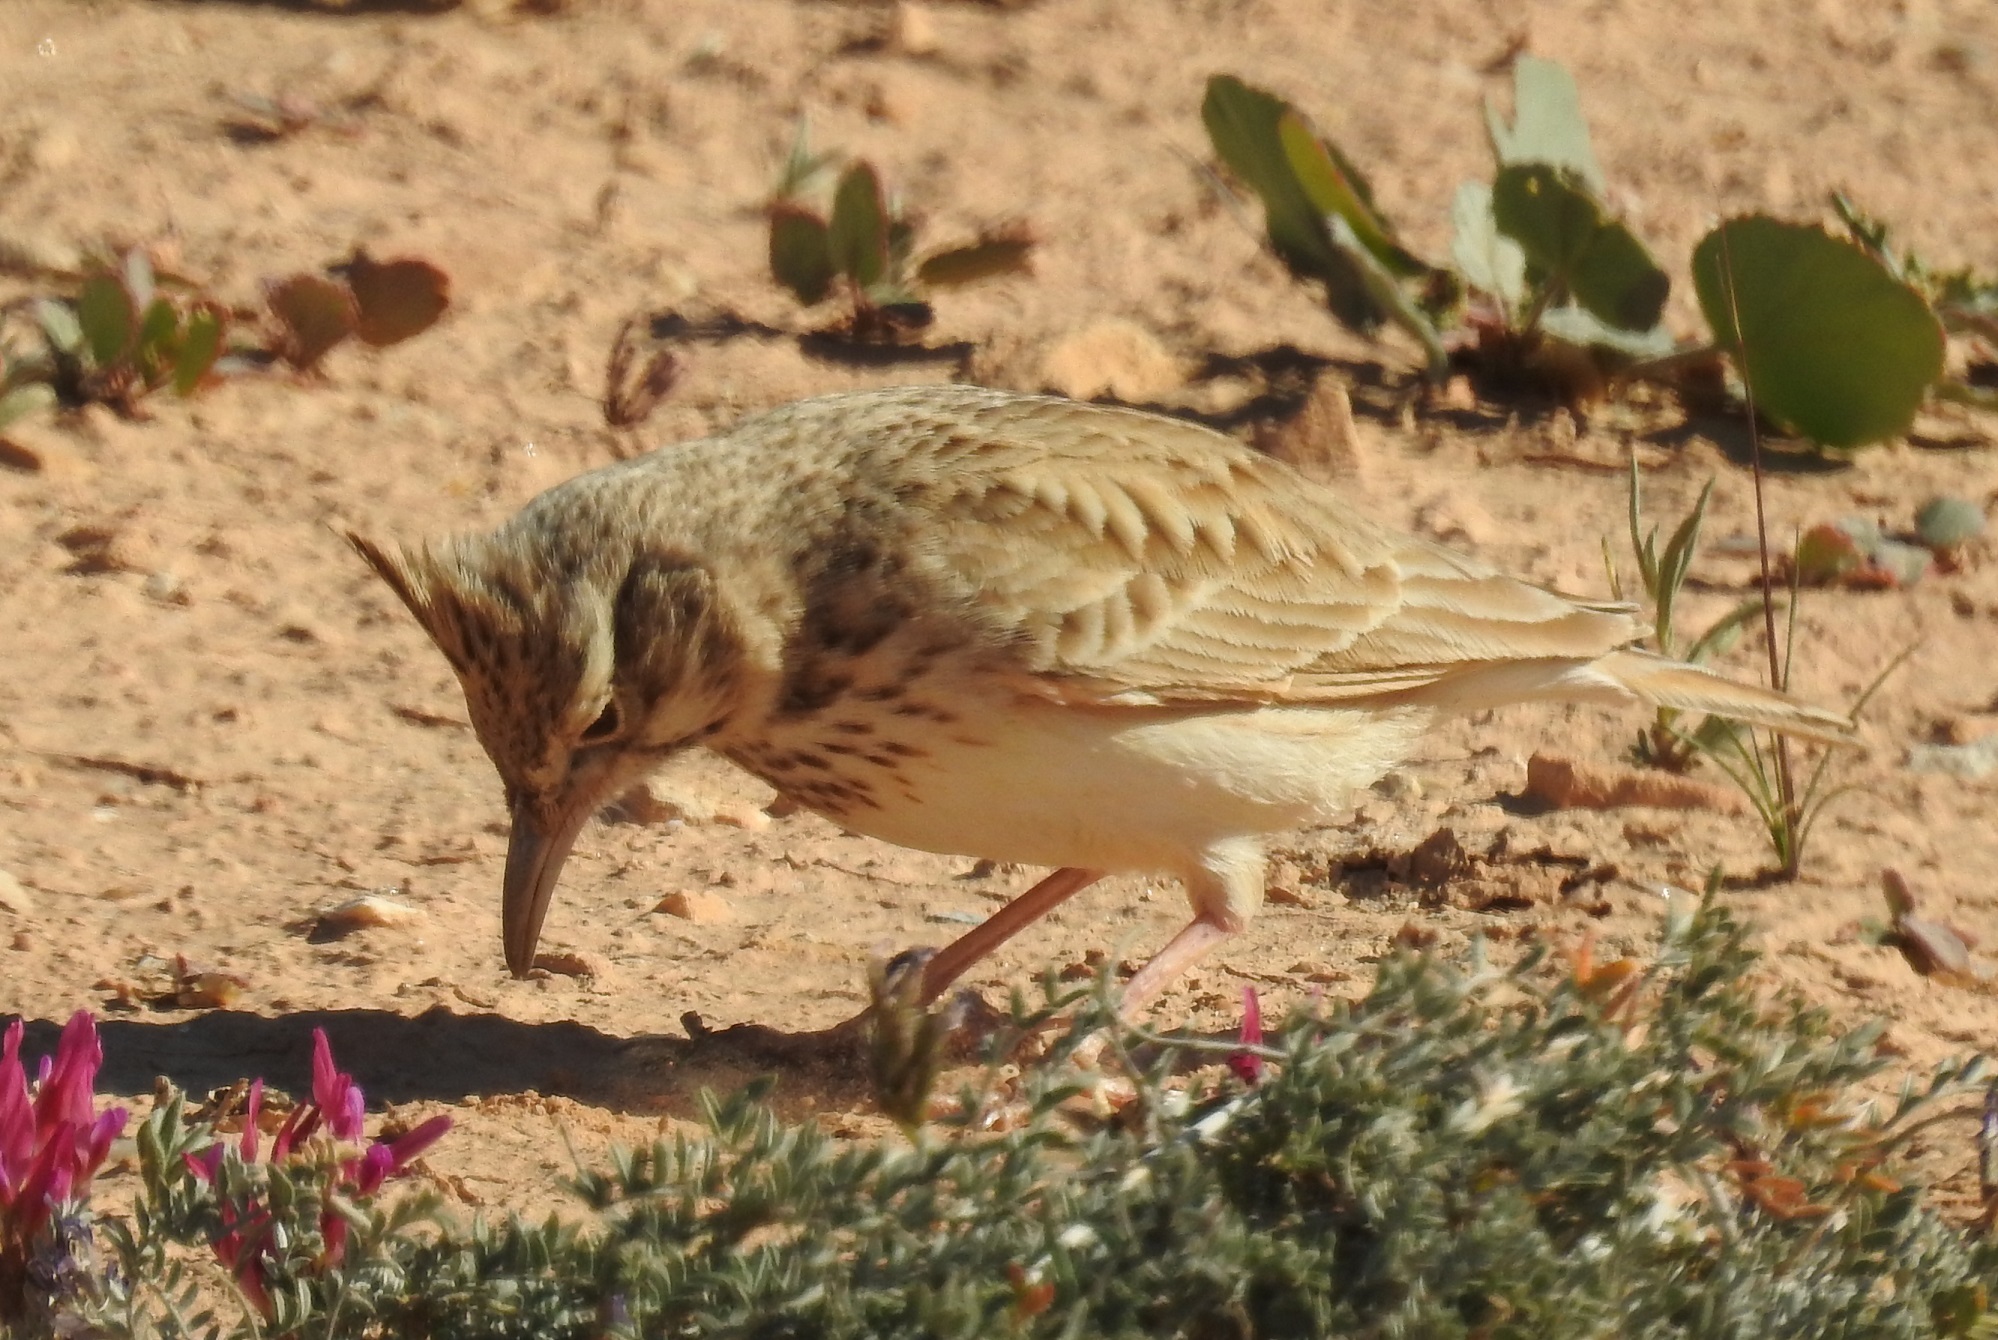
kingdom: Animalia
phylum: Chordata
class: Aves
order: Passeriformes
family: Alaudidae
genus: Galerida
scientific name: Galerida cristata
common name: Crested lark
